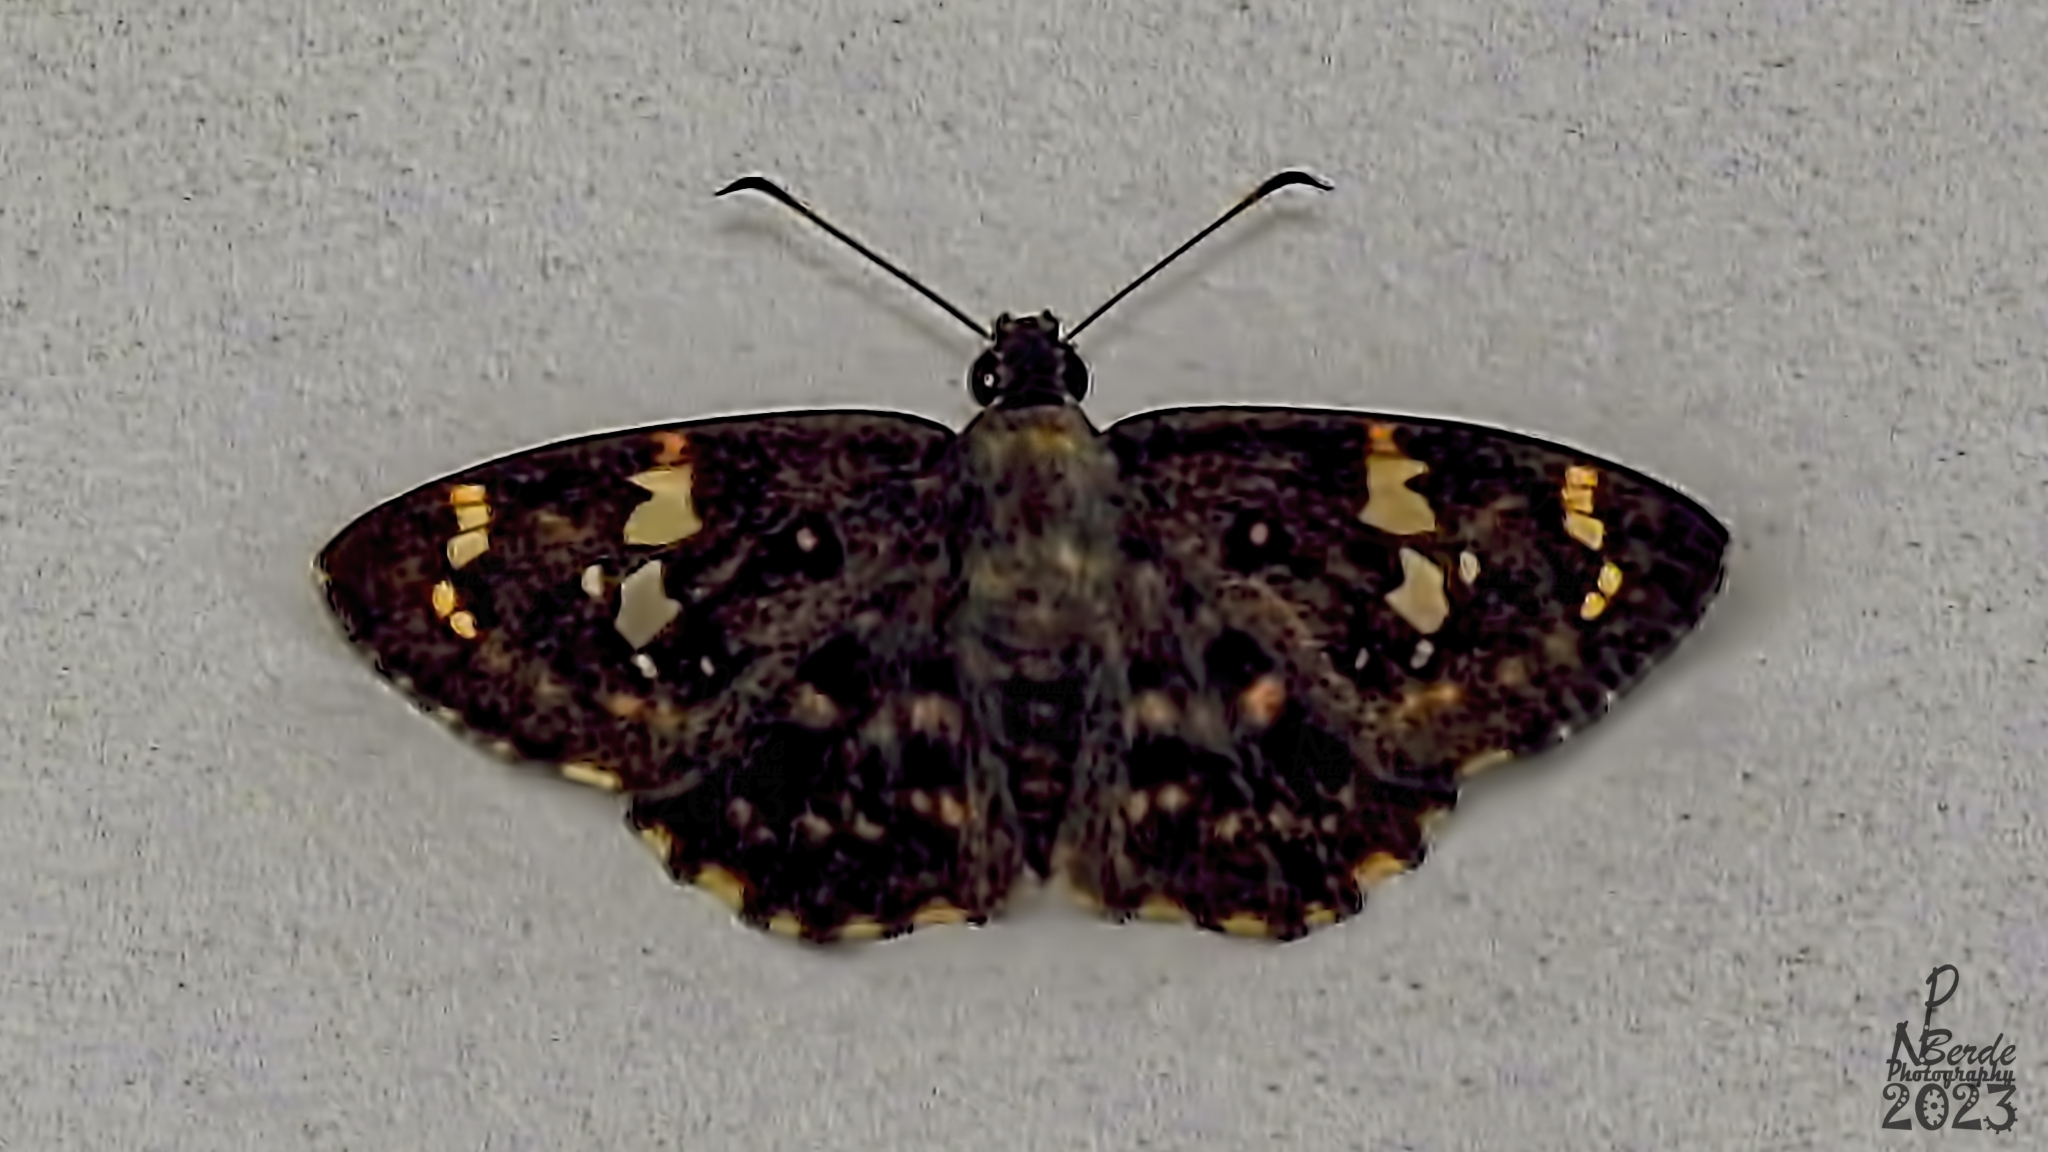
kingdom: Animalia
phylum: Arthropoda
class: Insecta
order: Lepidoptera
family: Hesperiidae
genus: Celaenorrhinus
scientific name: Celaenorrhinus ambareesa
